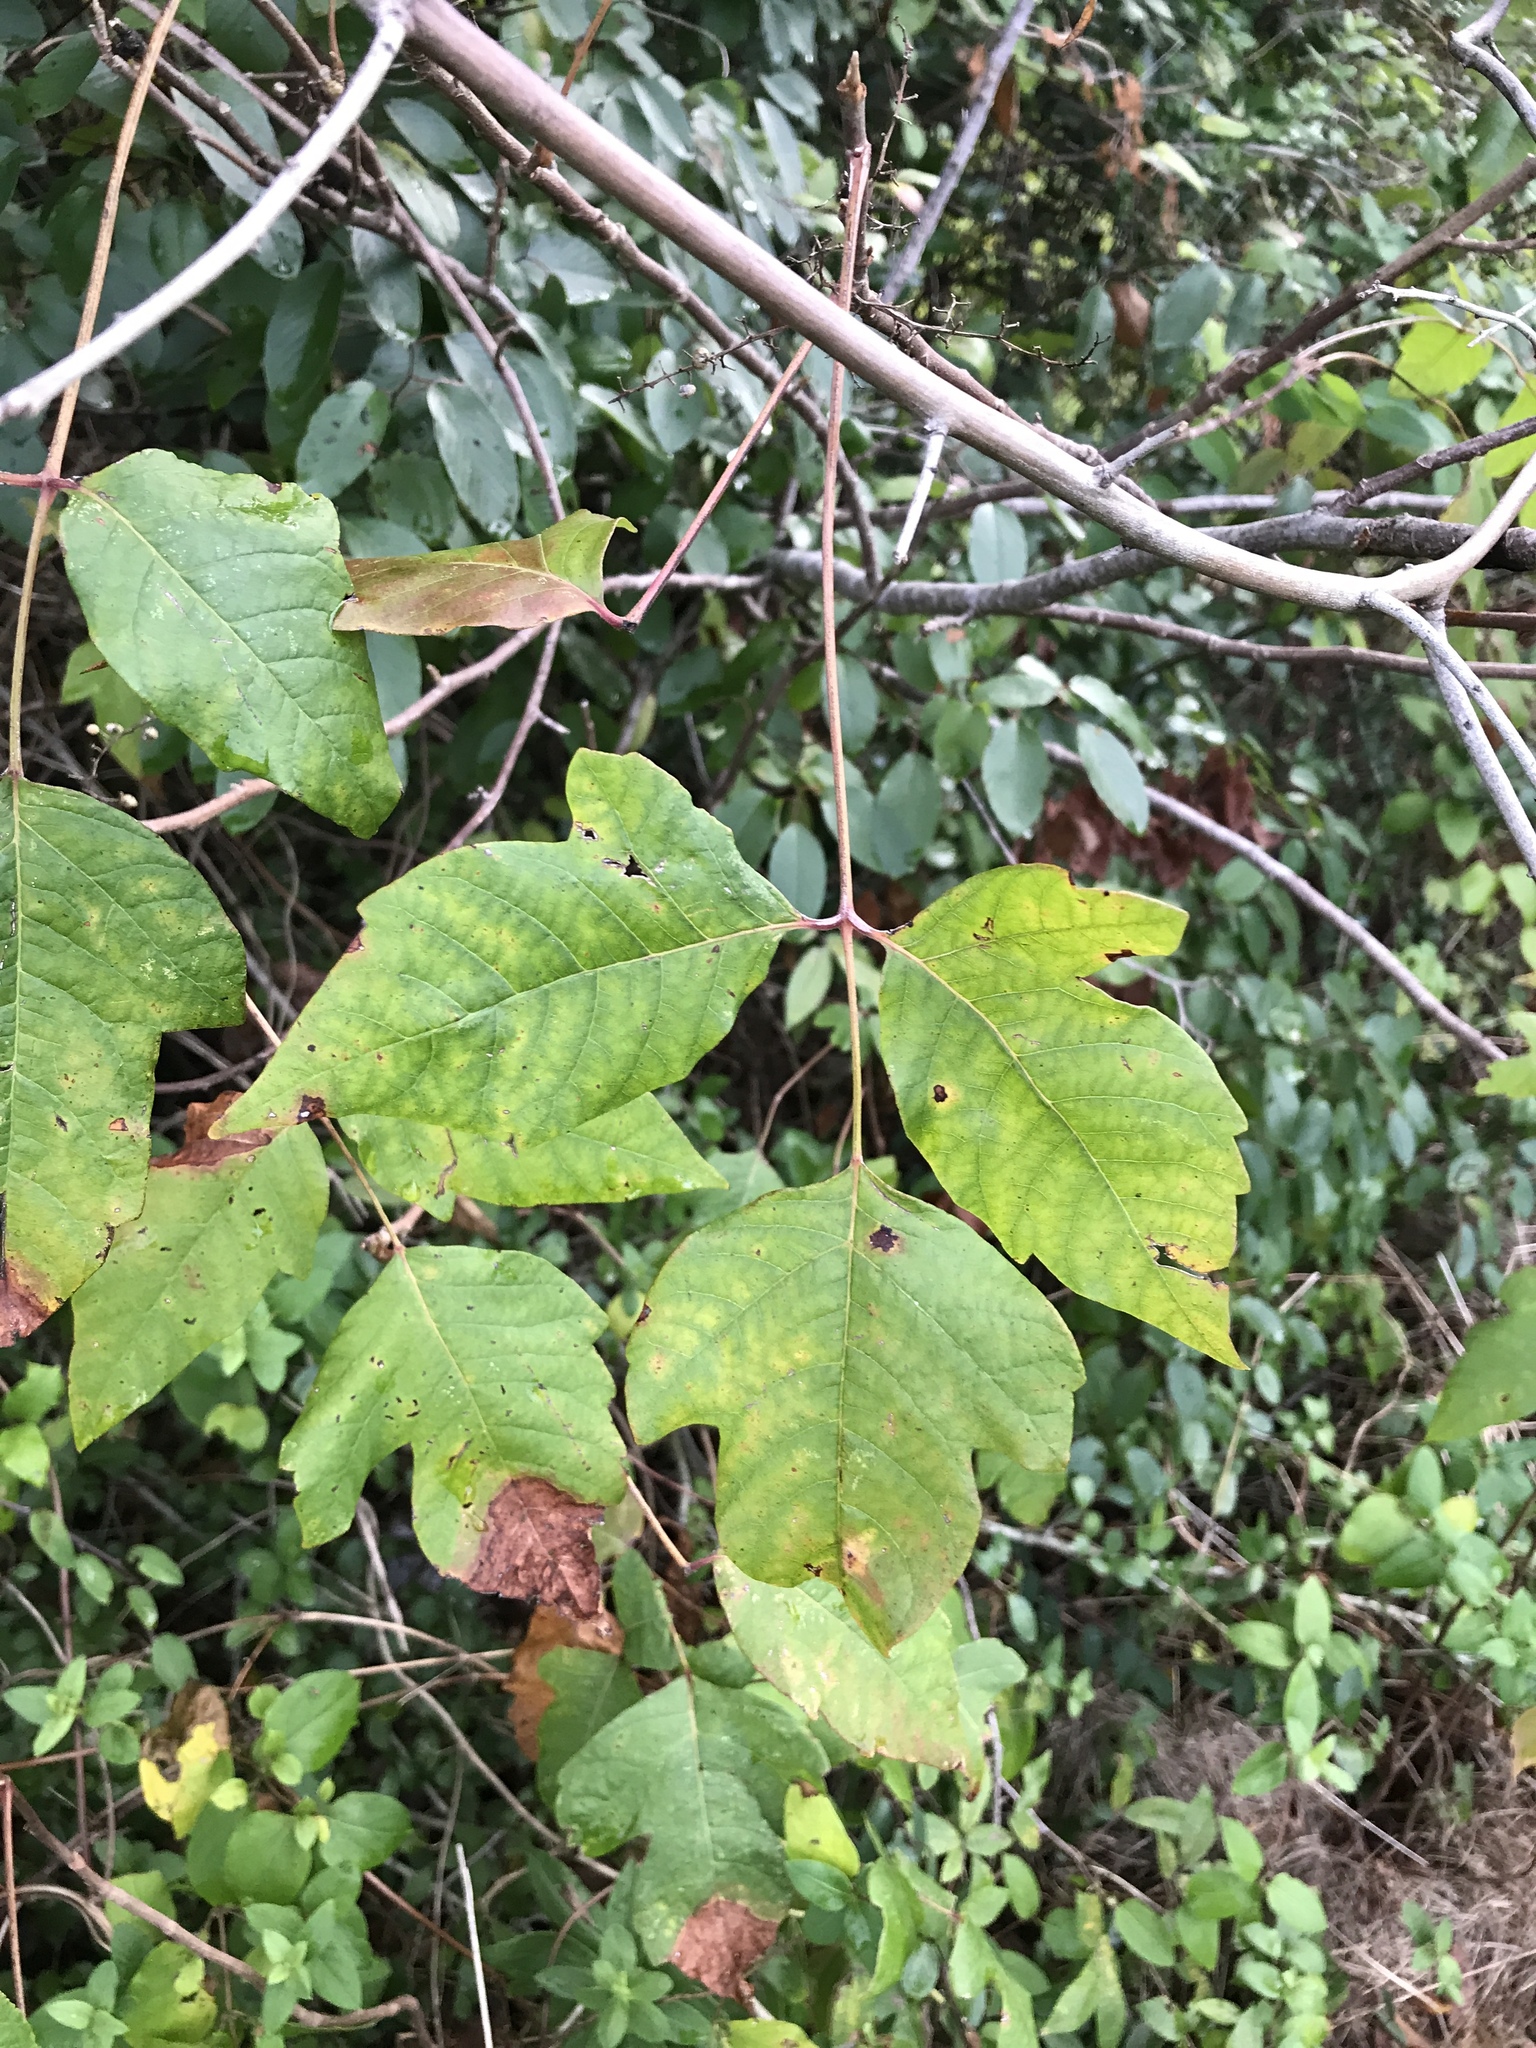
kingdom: Plantae
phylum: Tracheophyta
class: Magnoliopsida
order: Sapindales
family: Anacardiaceae
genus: Toxicodendron
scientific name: Toxicodendron radicans
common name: Poison ivy
